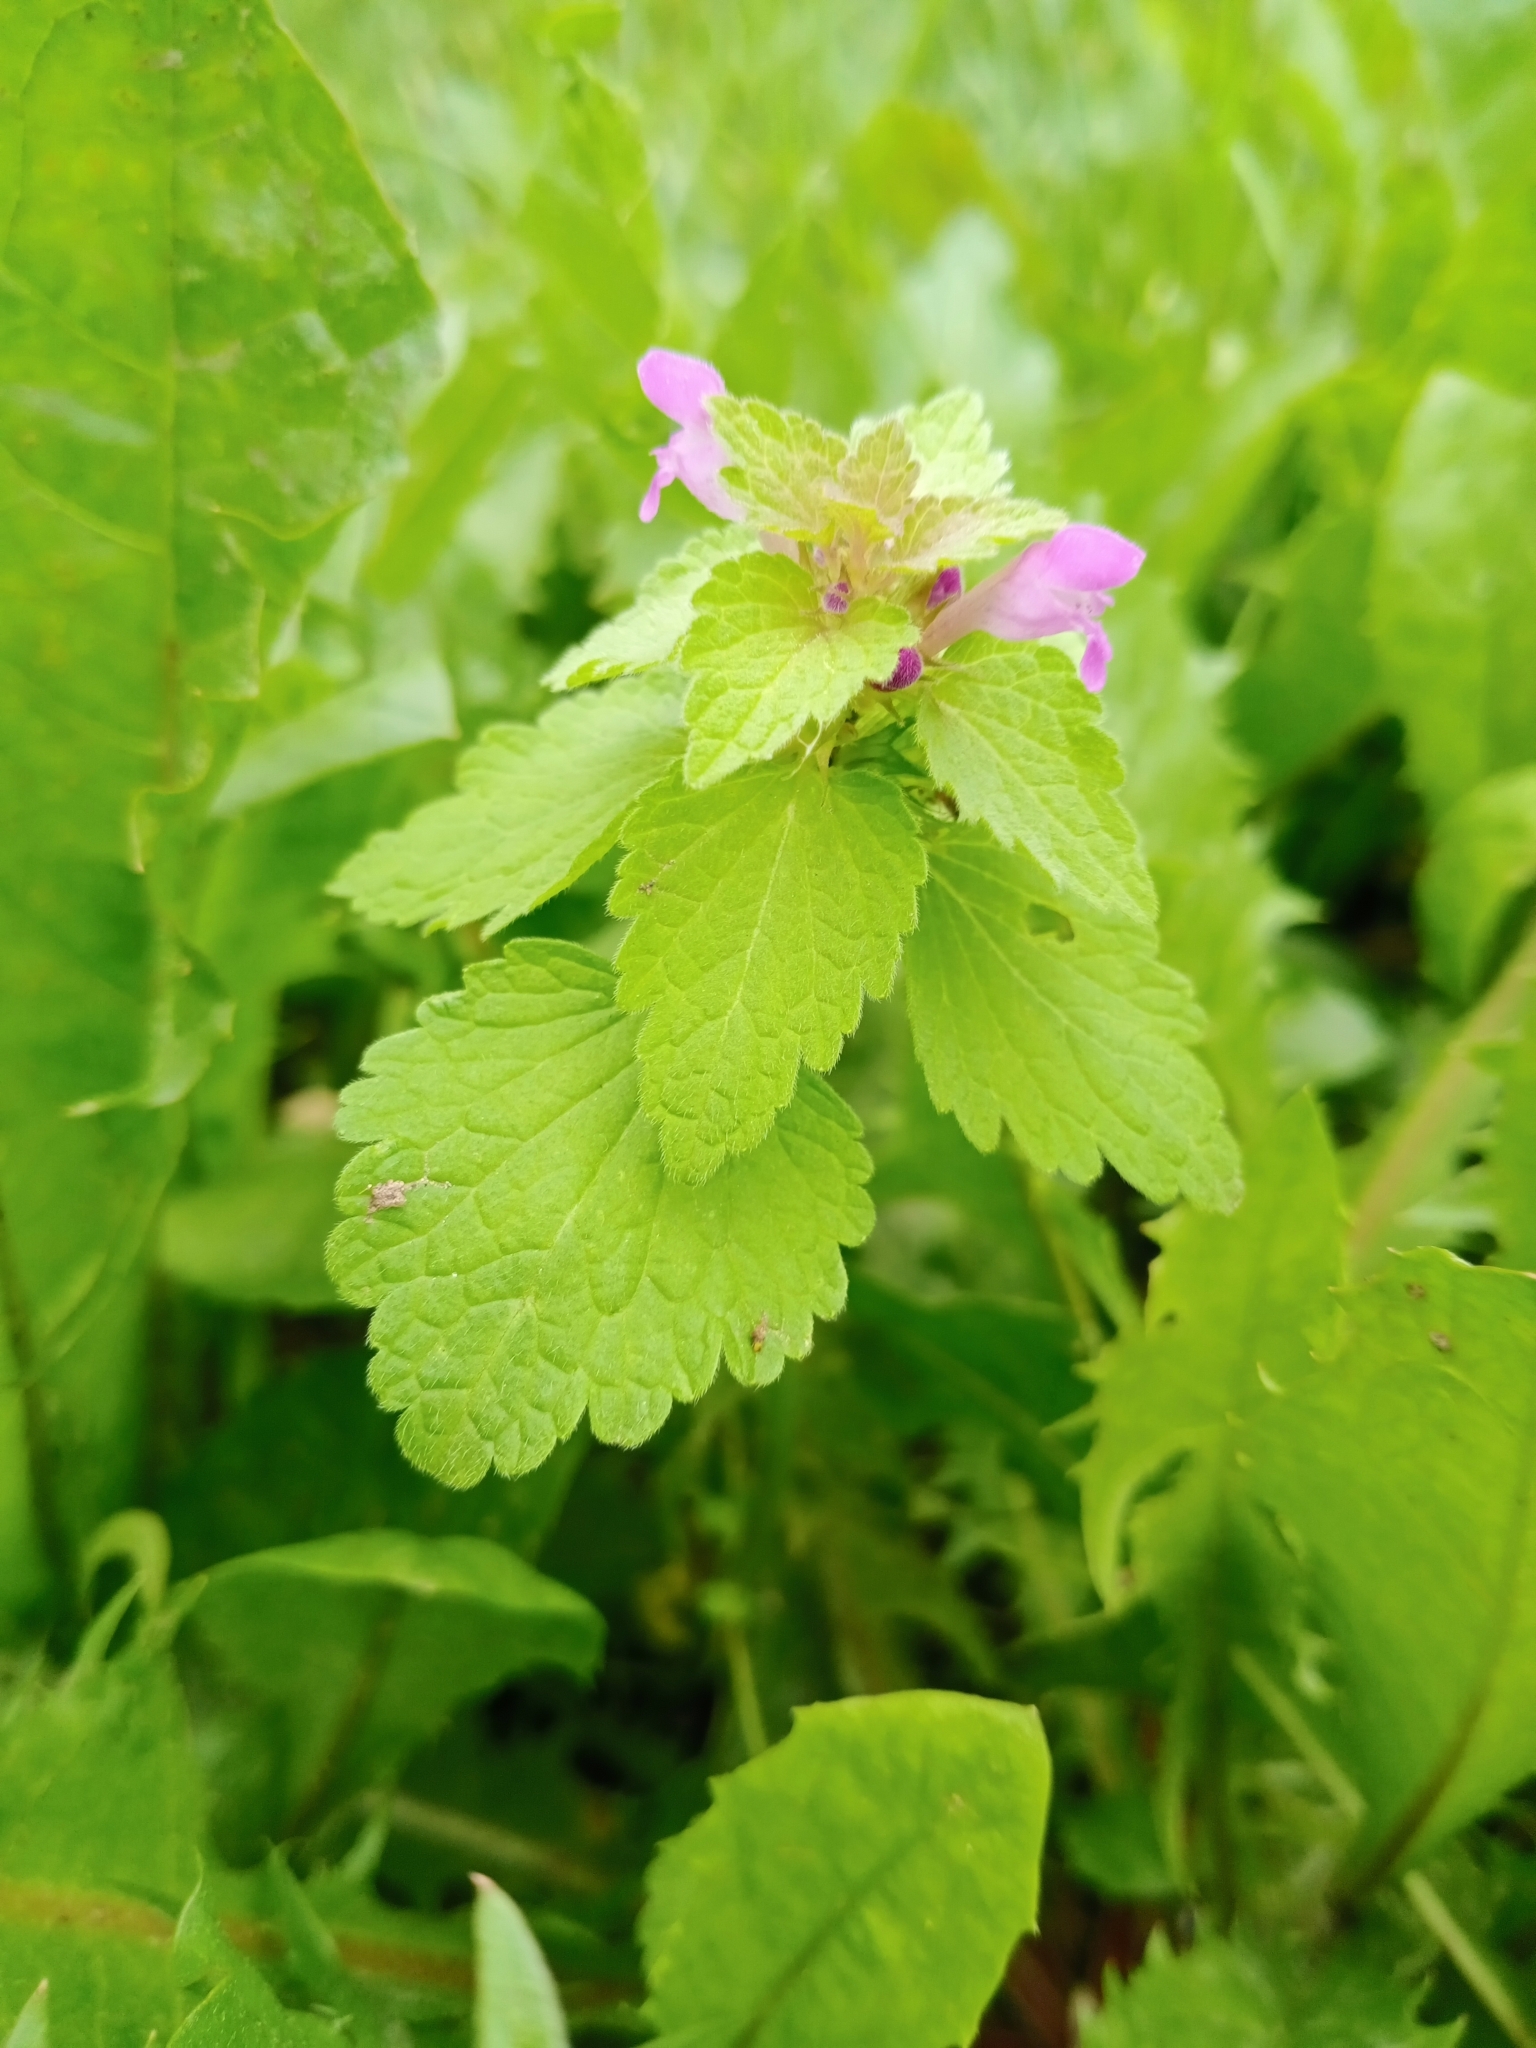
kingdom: Plantae
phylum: Tracheophyta
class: Magnoliopsida
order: Lamiales
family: Lamiaceae
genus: Lamium
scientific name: Lamium purpureum
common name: Red dead-nettle
